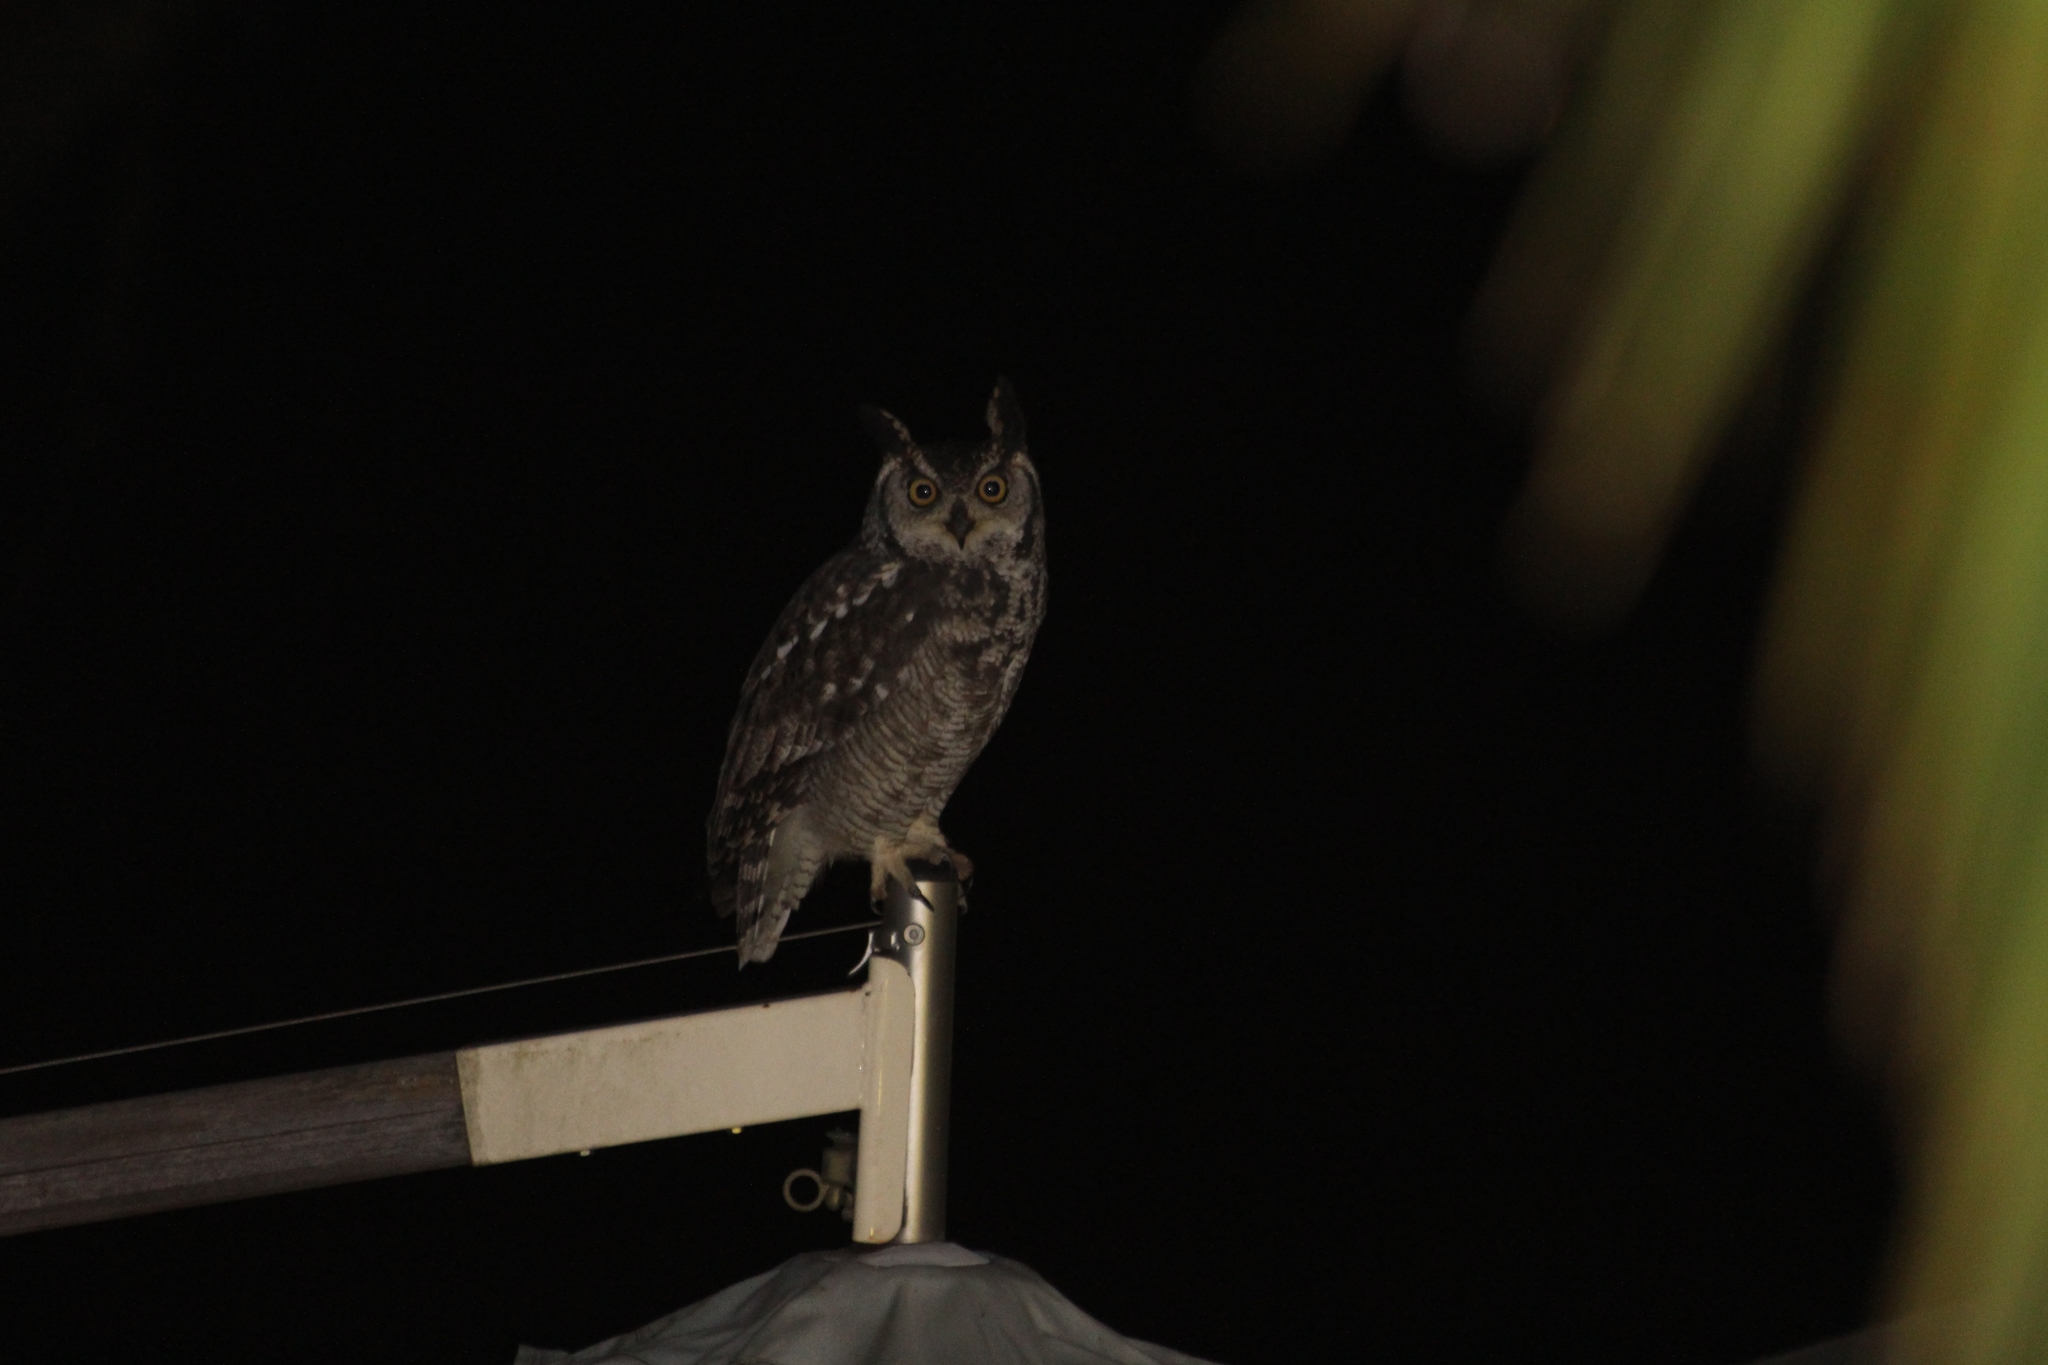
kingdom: Animalia
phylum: Chordata
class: Aves
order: Strigiformes
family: Strigidae
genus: Bubo
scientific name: Bubo africanus
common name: Spotted eagle-owl
